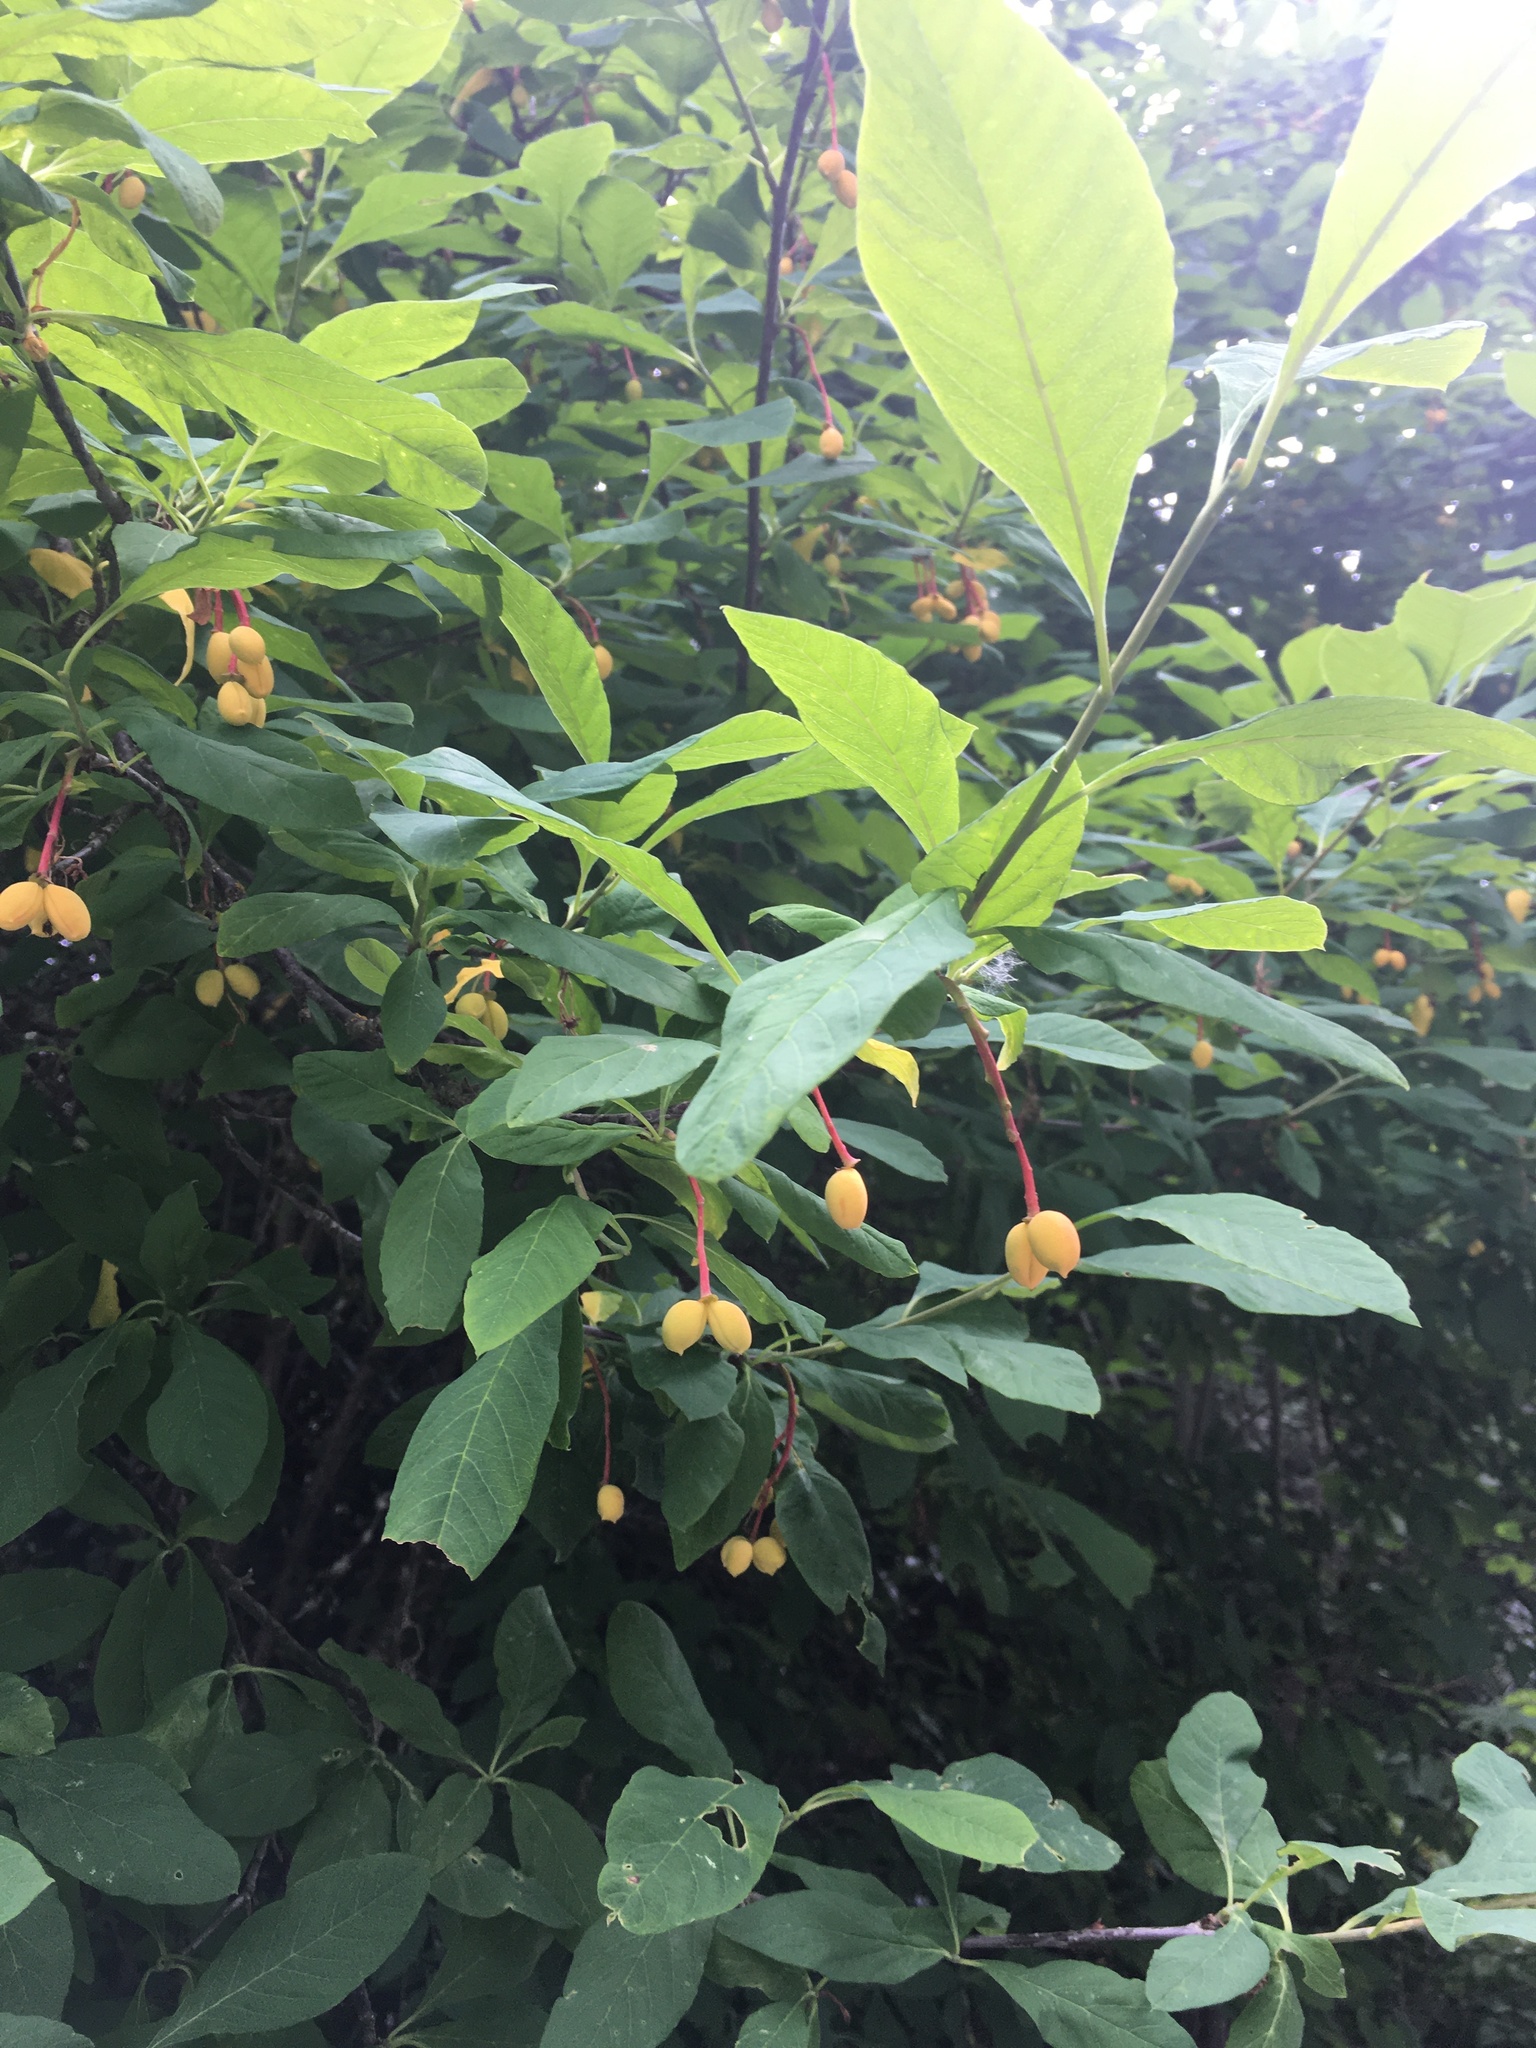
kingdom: Plantae
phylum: Tracheophyta
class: Magnoliopsida
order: Rosales
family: Rosaceae
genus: Oemleria
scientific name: Oemleria cerasiformis
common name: Osoberry
